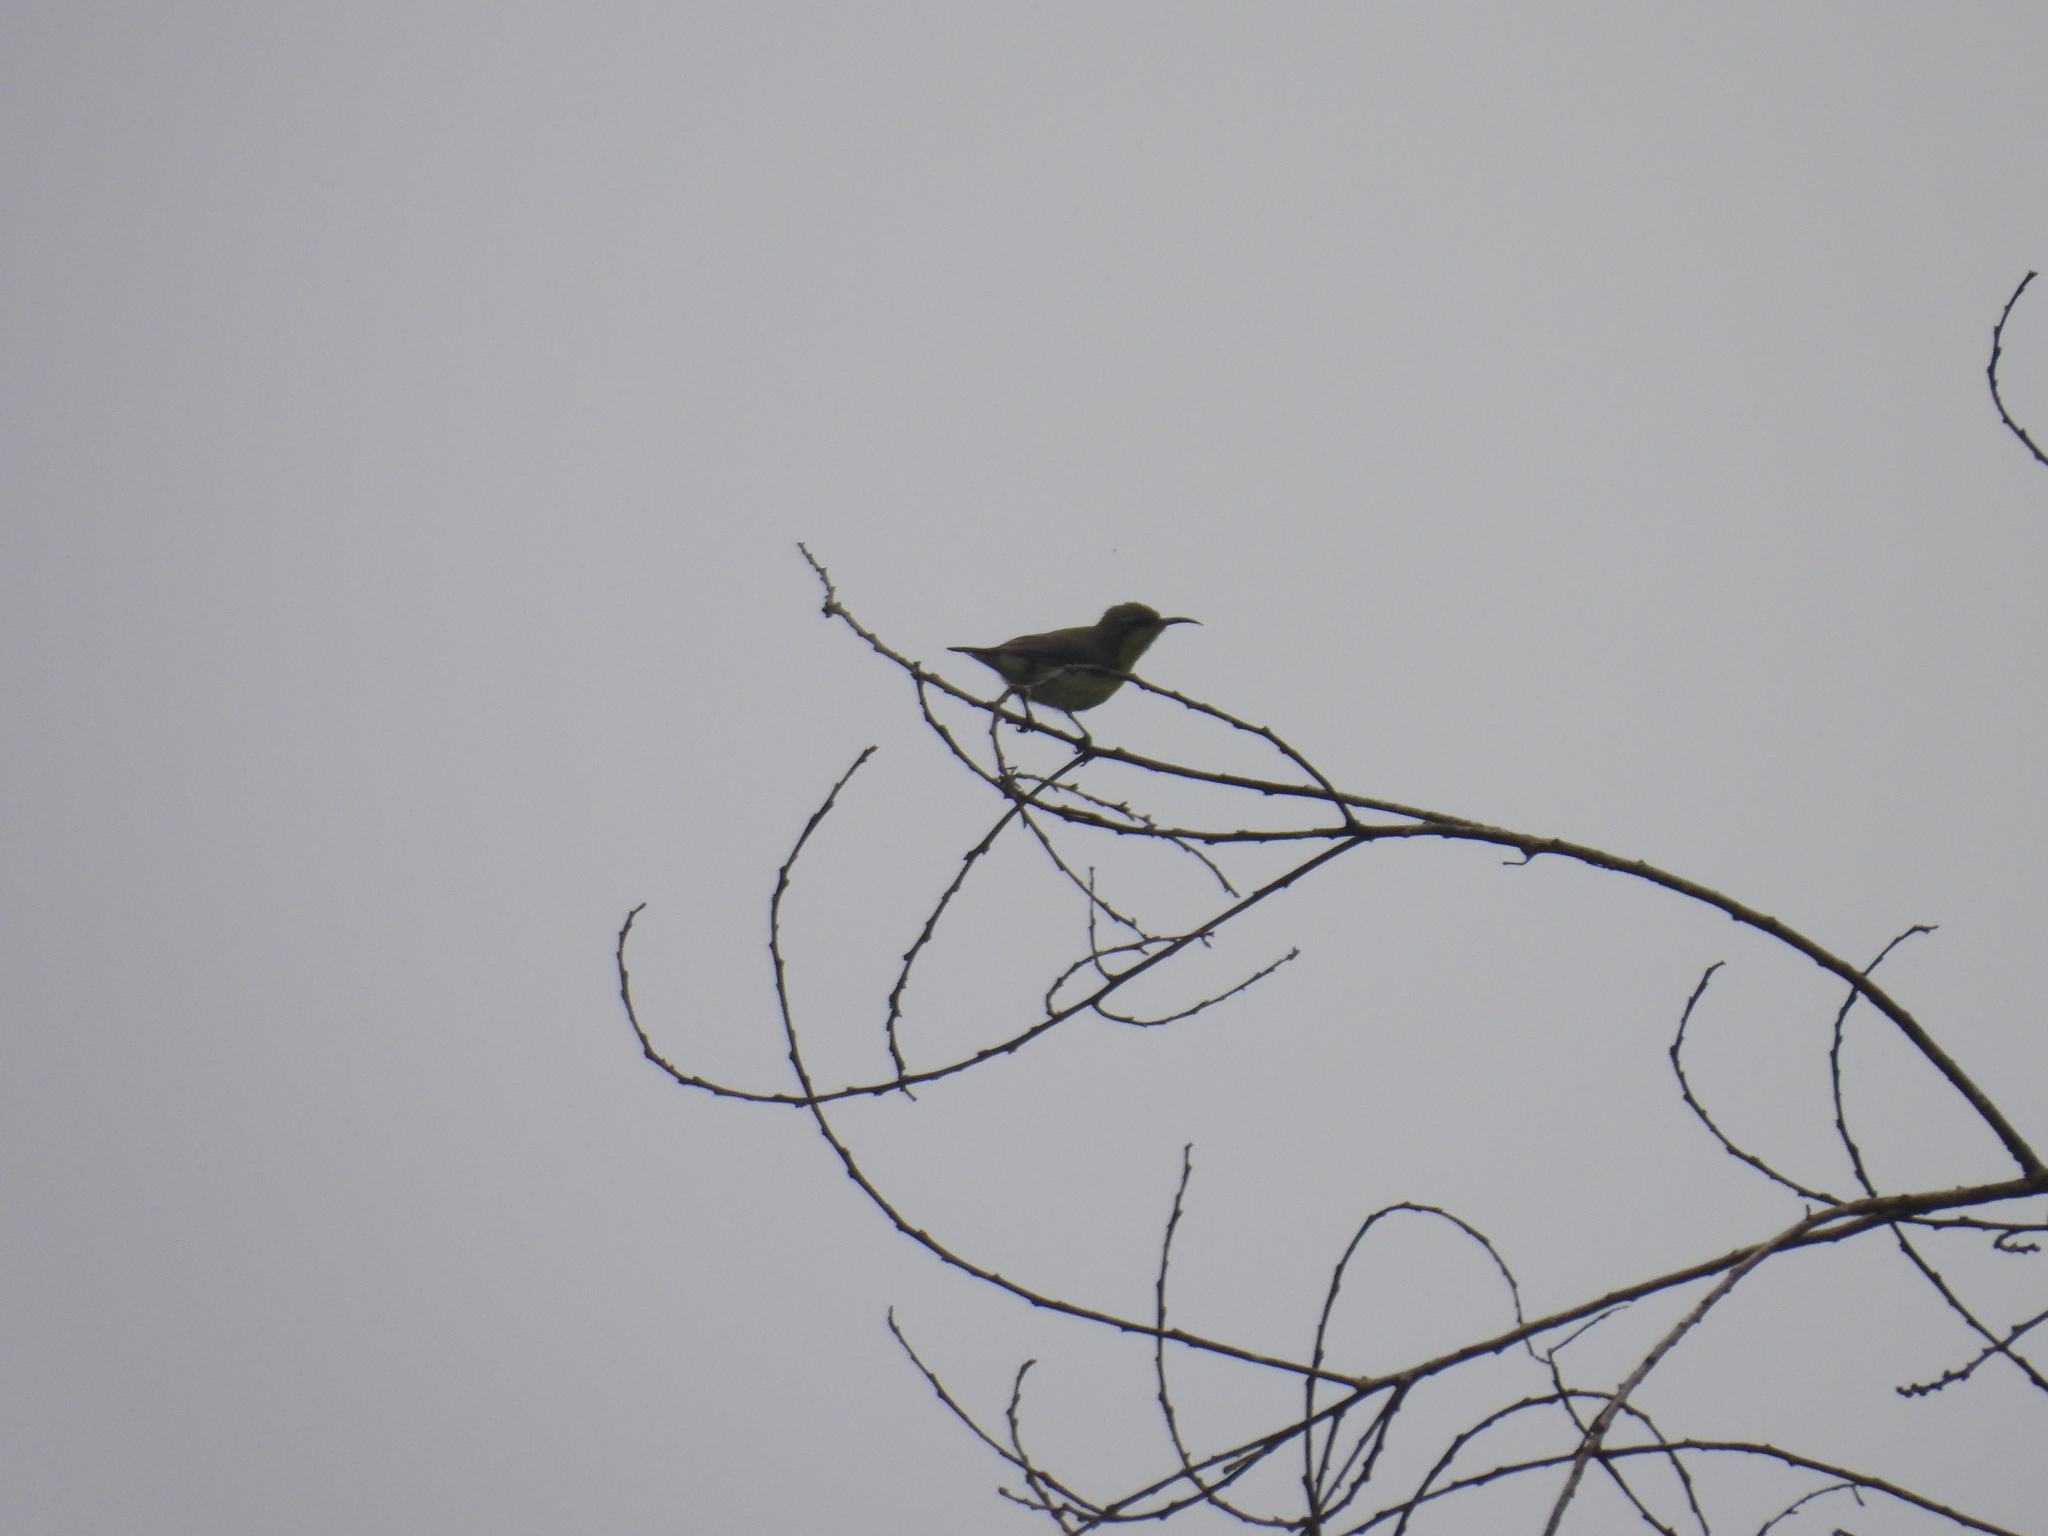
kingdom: Animalia
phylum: Chordata
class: Aves
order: Passeriformes
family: Nectariniidae
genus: Cinnyris
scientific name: Cinnyris asiaticus
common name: Purple sunbird
